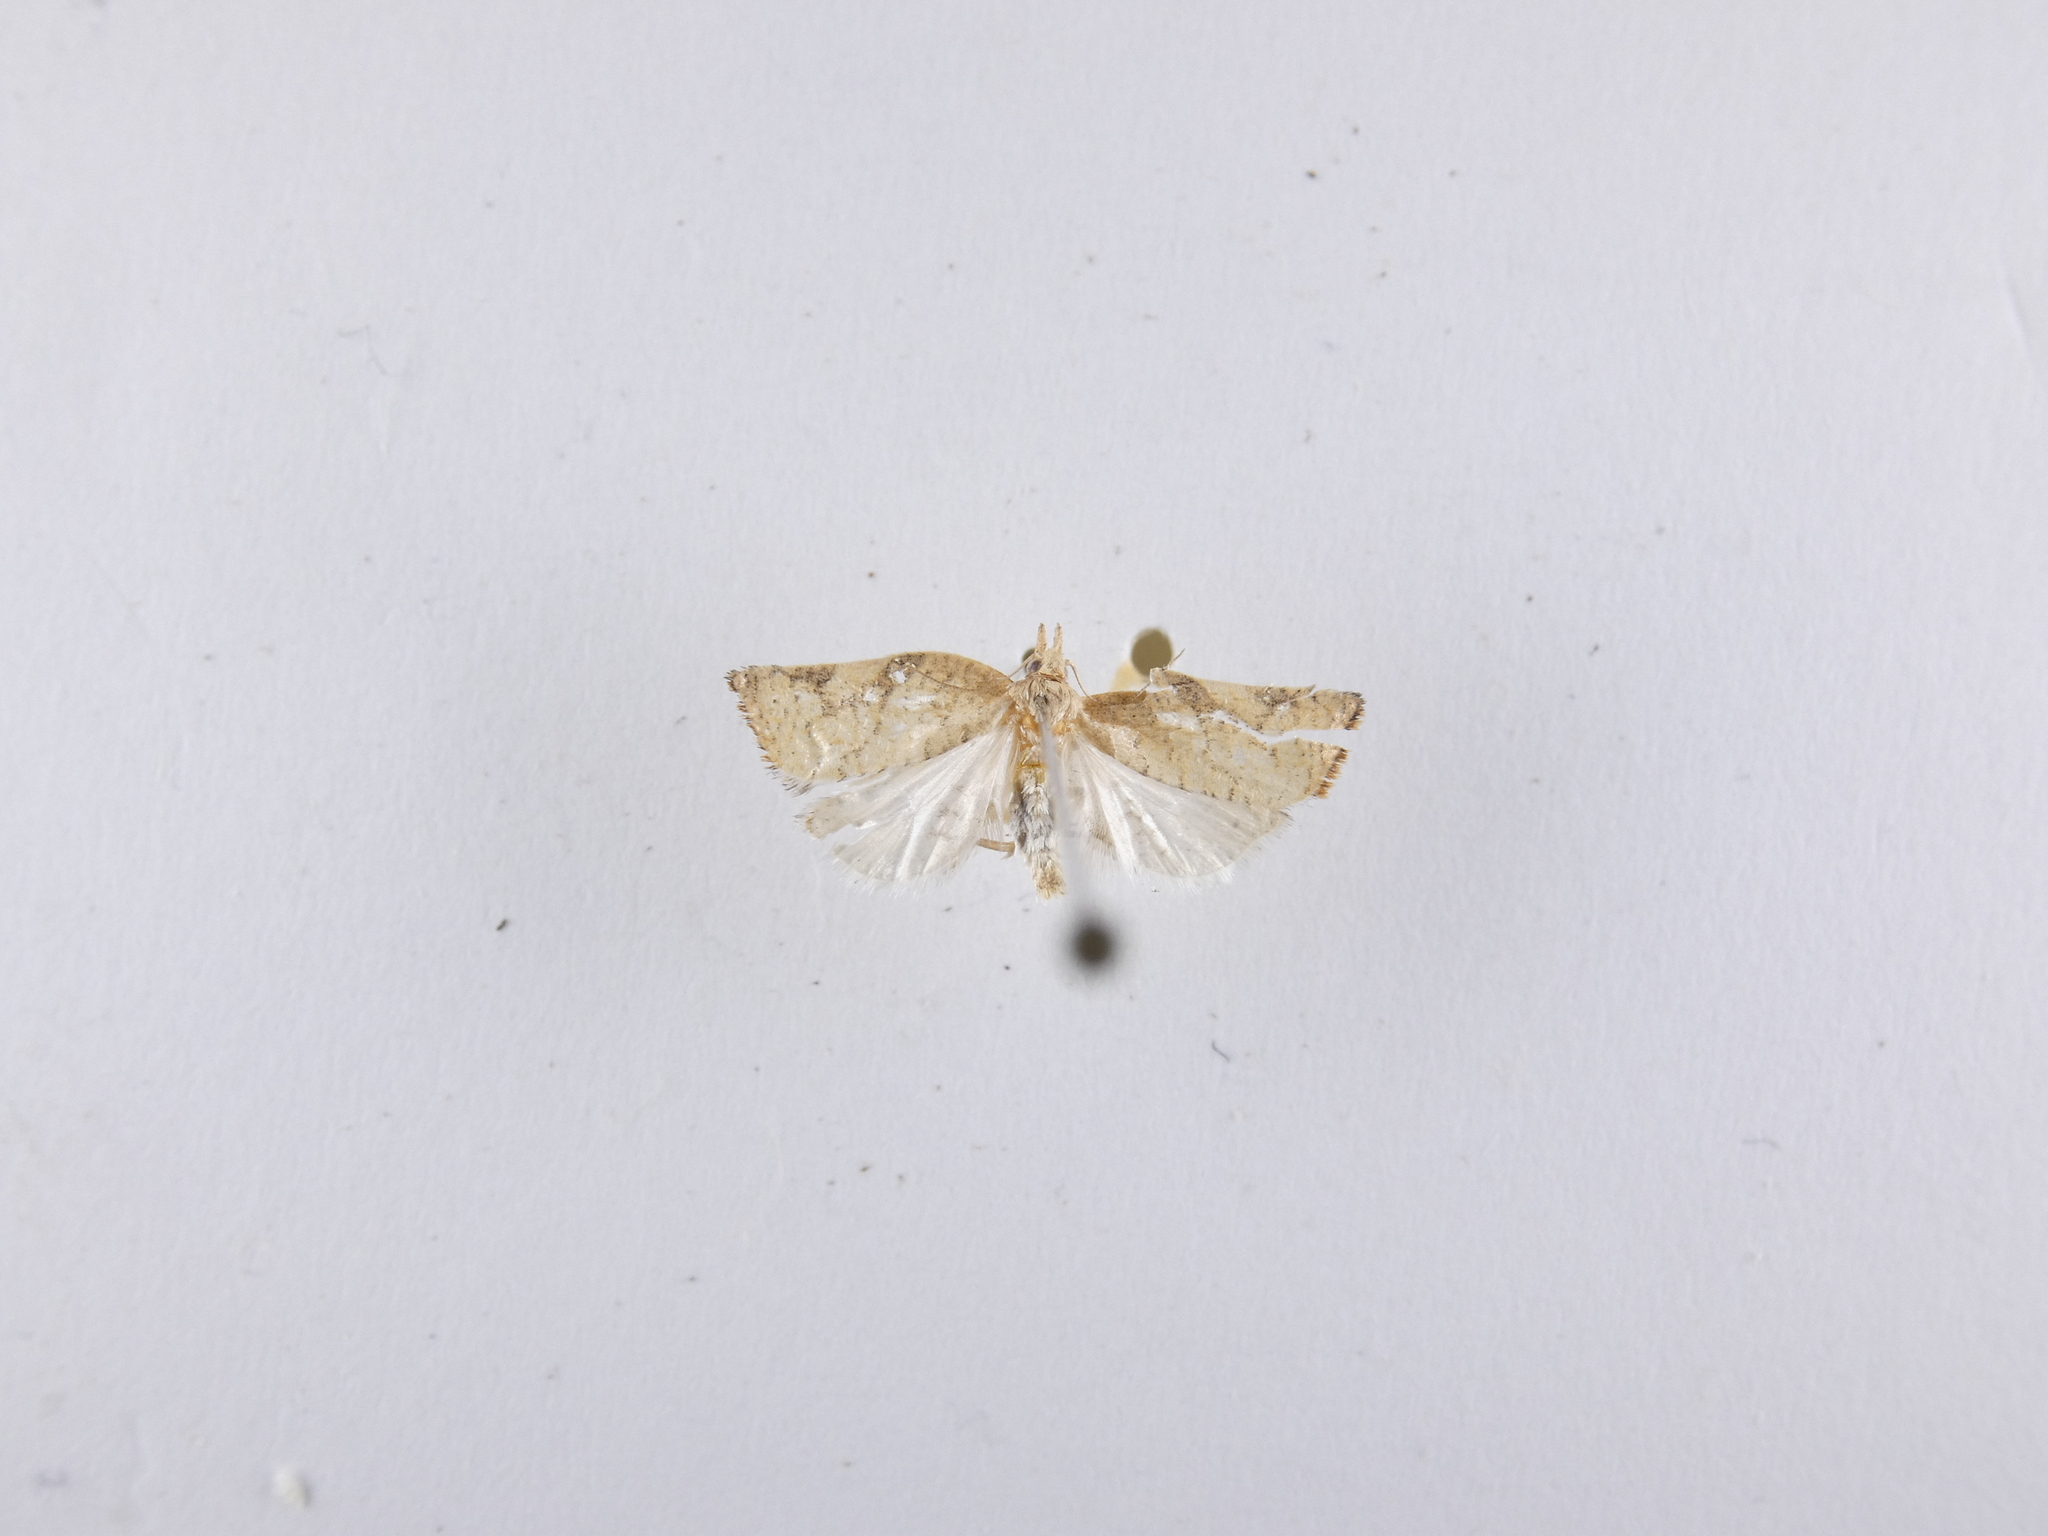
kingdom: Animalia
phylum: Arthropoda
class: Insecta
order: Lepidoptera
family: Tortricidae
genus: Catamacta
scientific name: Catamacta gavisana
